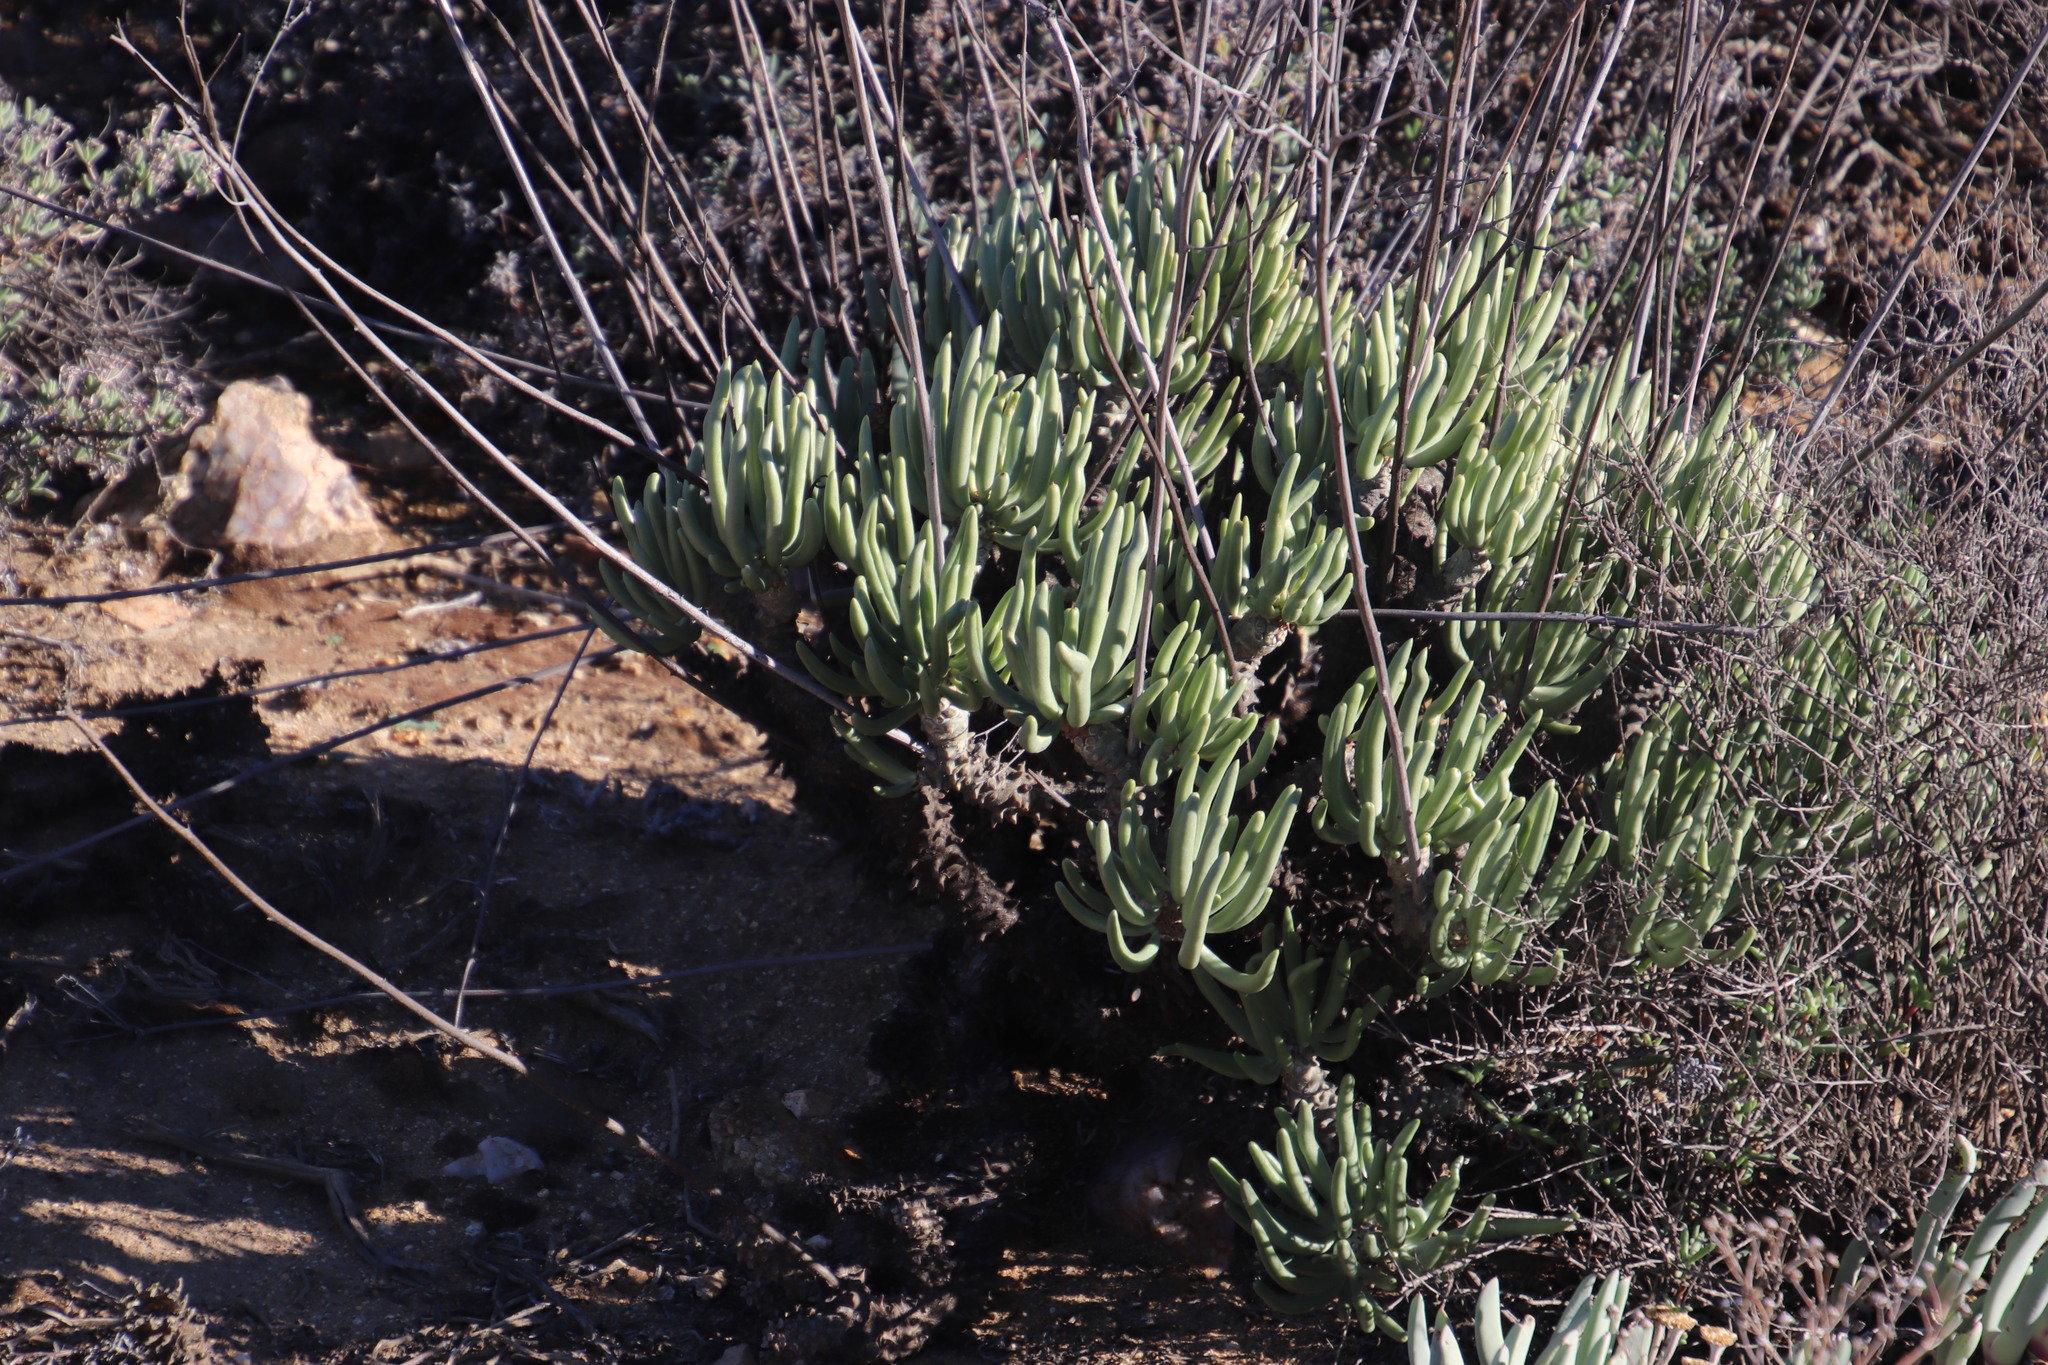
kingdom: Plantae
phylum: Tracheophyta
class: Magnoliopsida
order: Saxifragales
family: Crassulaceae
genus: Tylecodon
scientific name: Tylecodon wallichii
